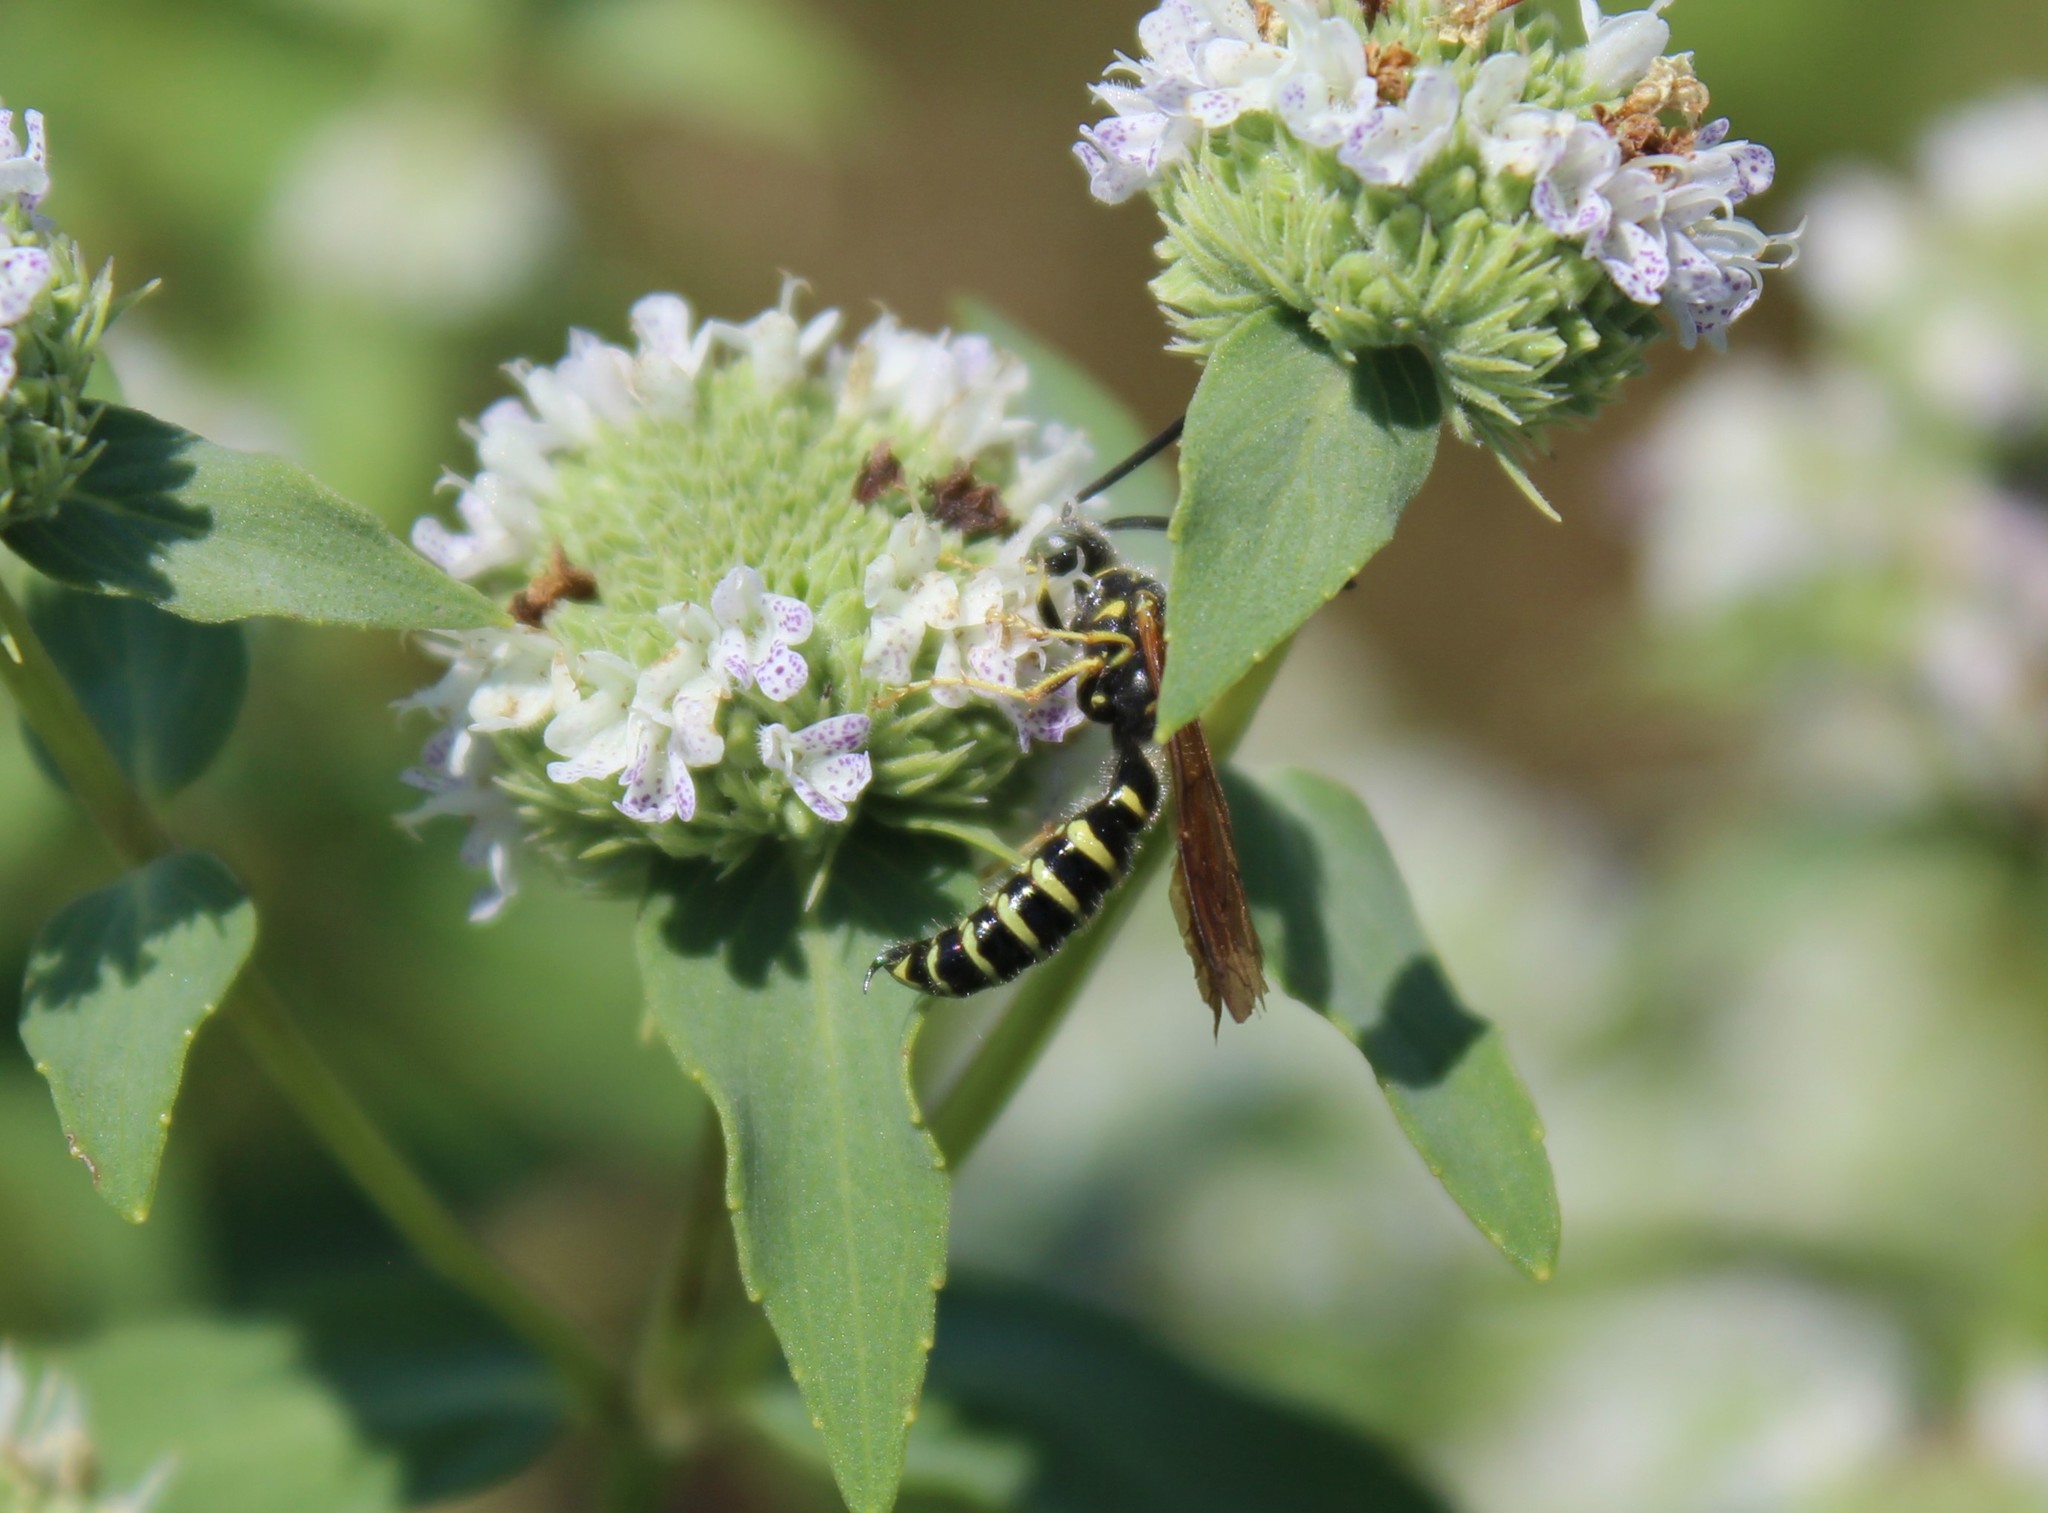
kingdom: Animalia
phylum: Arthropoda
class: Insecta
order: Hymenoptera
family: Tiphiidae
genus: Myzinum
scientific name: Myzinum quinquecinctum
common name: Five-banded thynnid wasp
